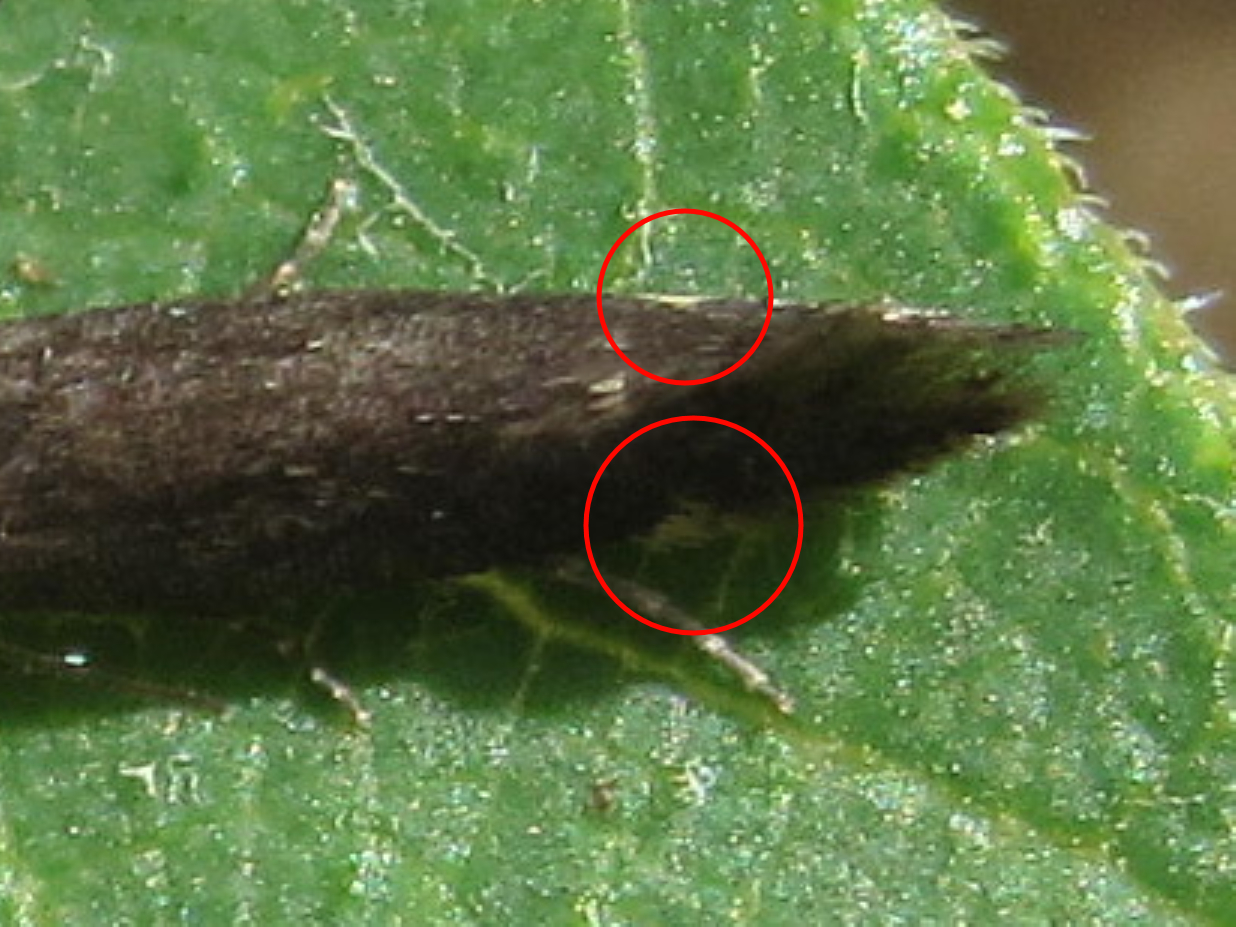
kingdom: Animalia
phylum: Arthropoda
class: Insecta
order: Lepidoptera
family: Gelechiidae
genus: Aproaerema
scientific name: Aproaerema anthyllidella
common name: Vetch sober
